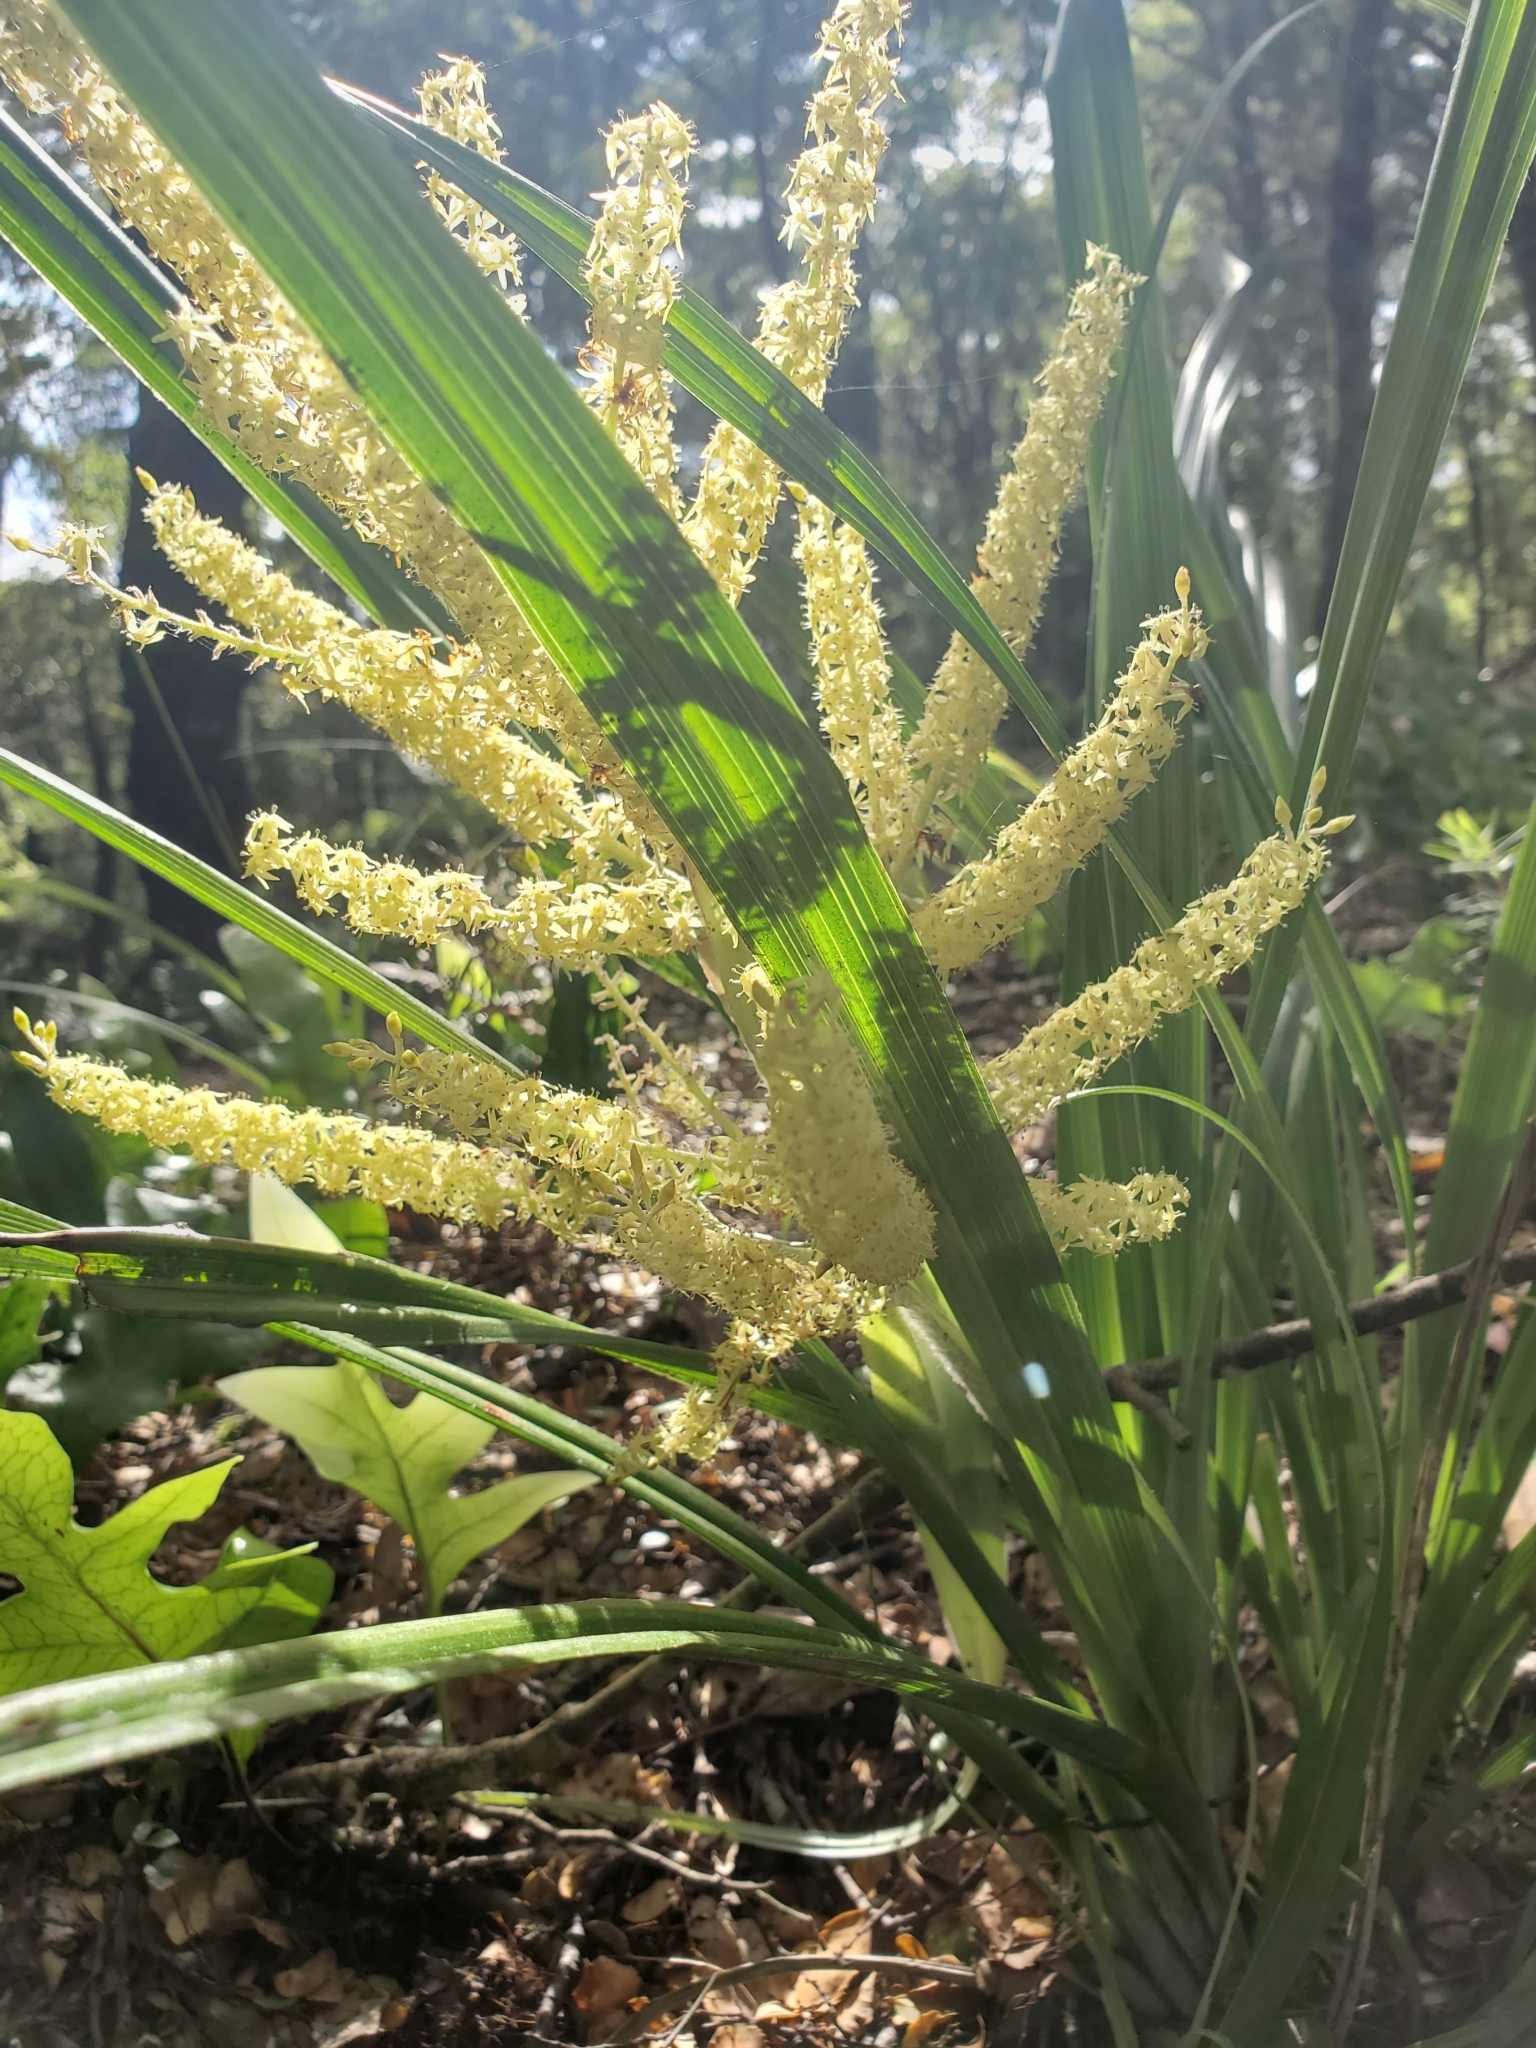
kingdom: Plantae
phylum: Tracheophyta
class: Liliopsida
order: Asparagales
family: Asteliaceae
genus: Astelia
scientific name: Astelia solandri
